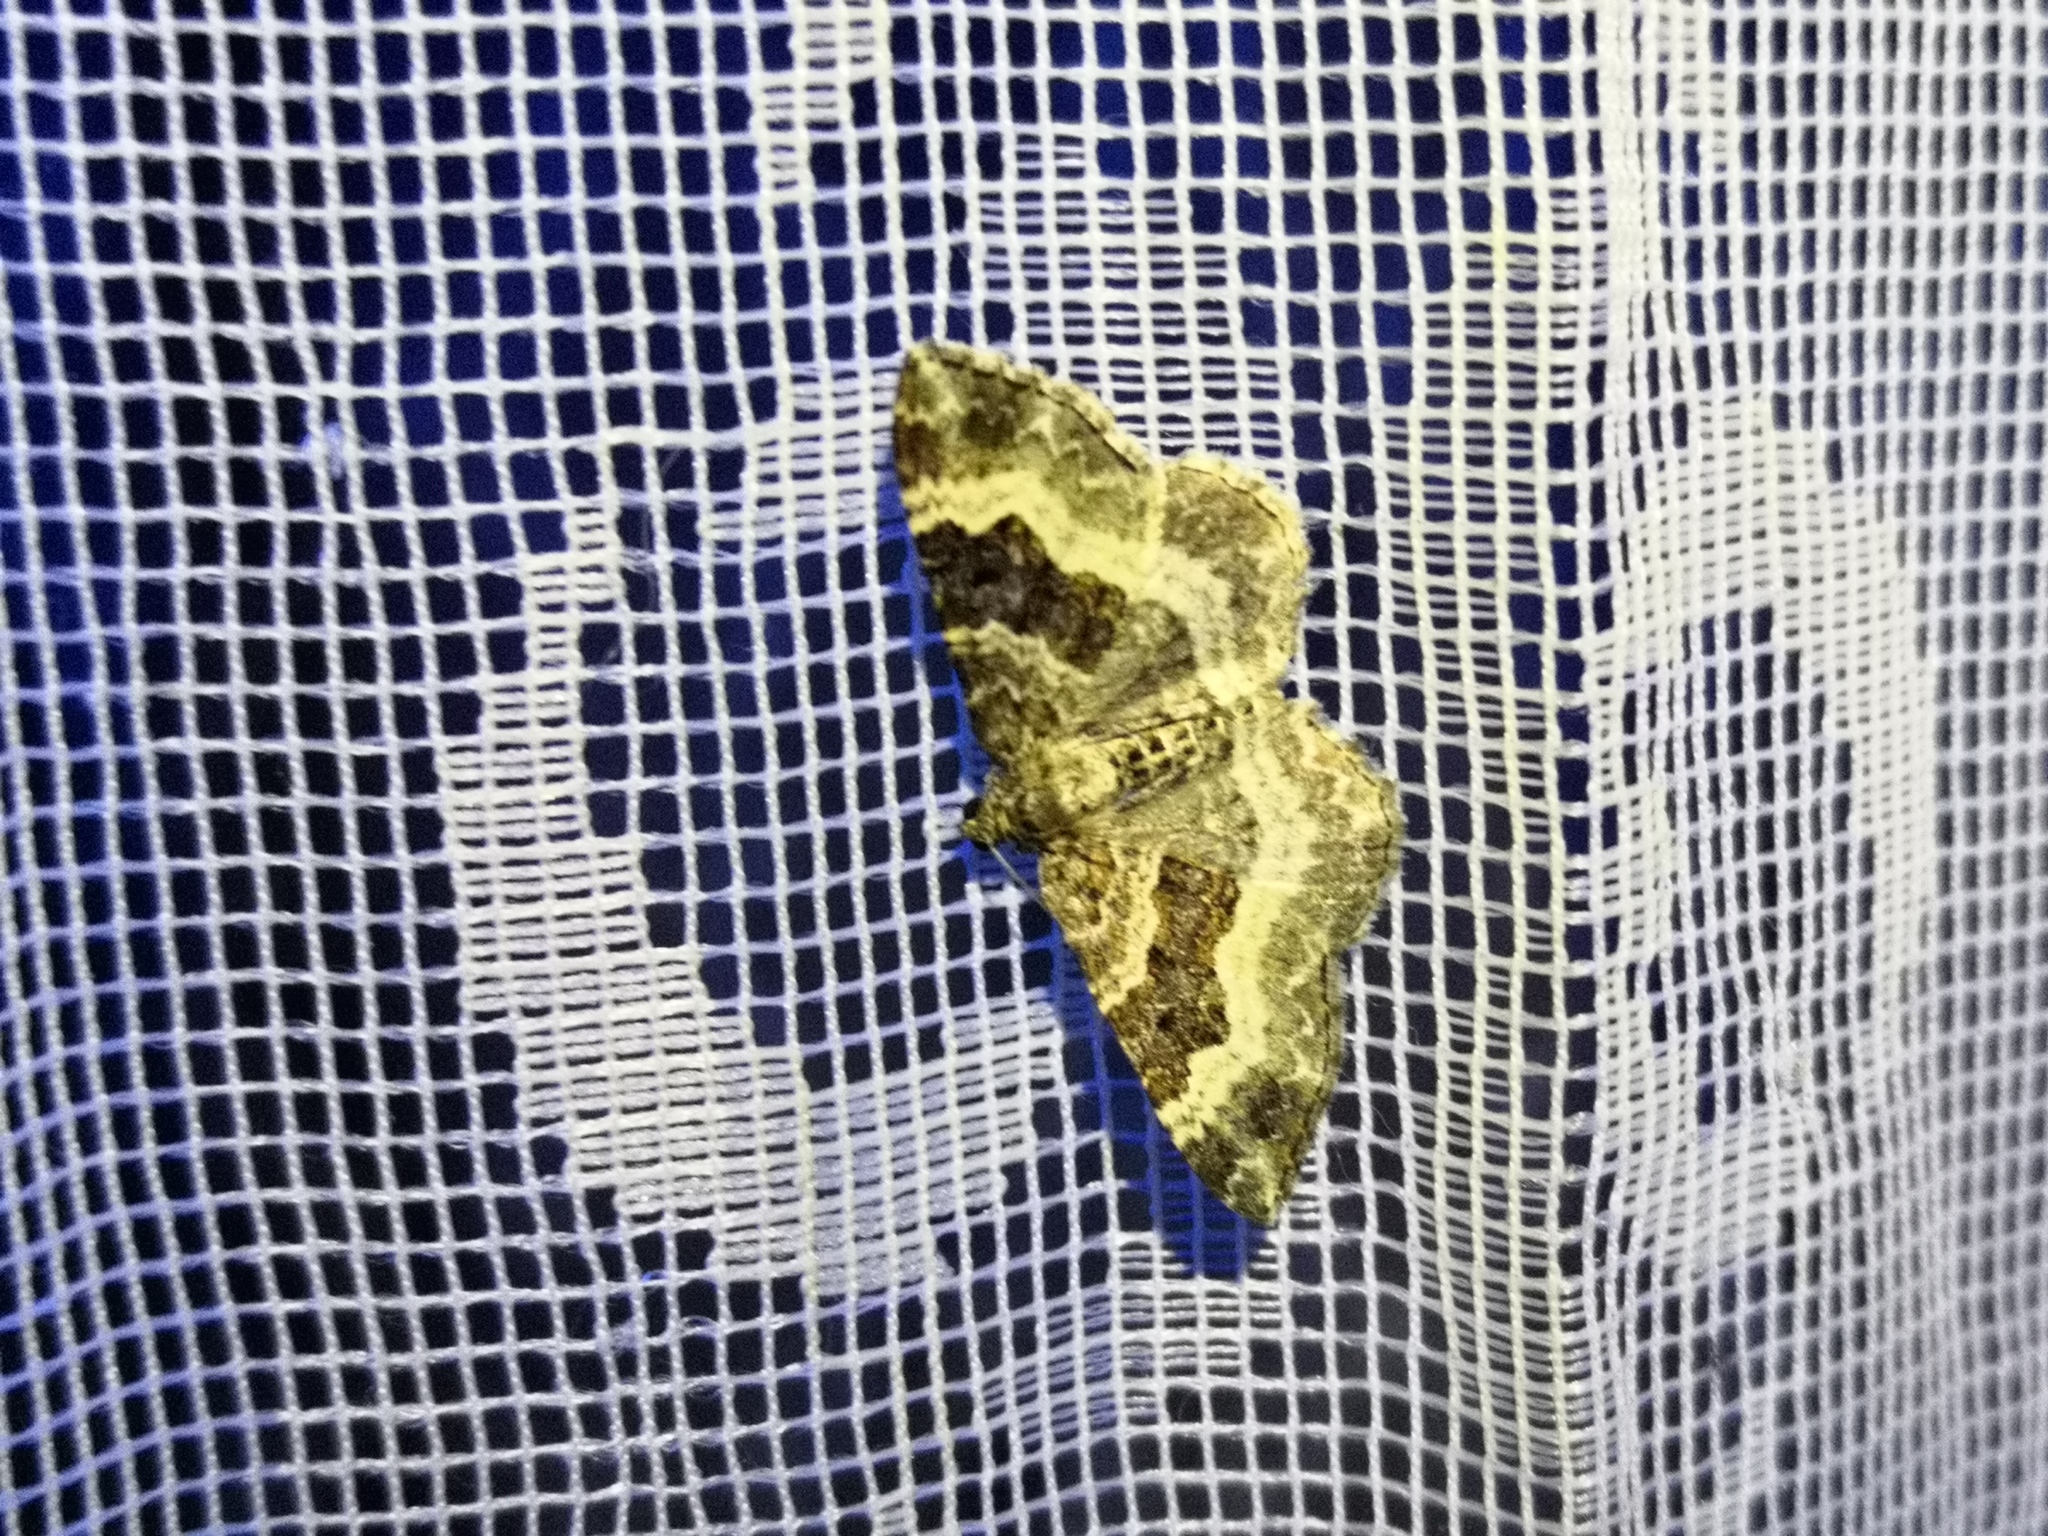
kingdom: Animalia
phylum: Arthropoda
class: Insecta
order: Lepidoptera
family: Geometridae
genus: Epirrhoe
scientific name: Epirrhoe alternata
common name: Common carpet
